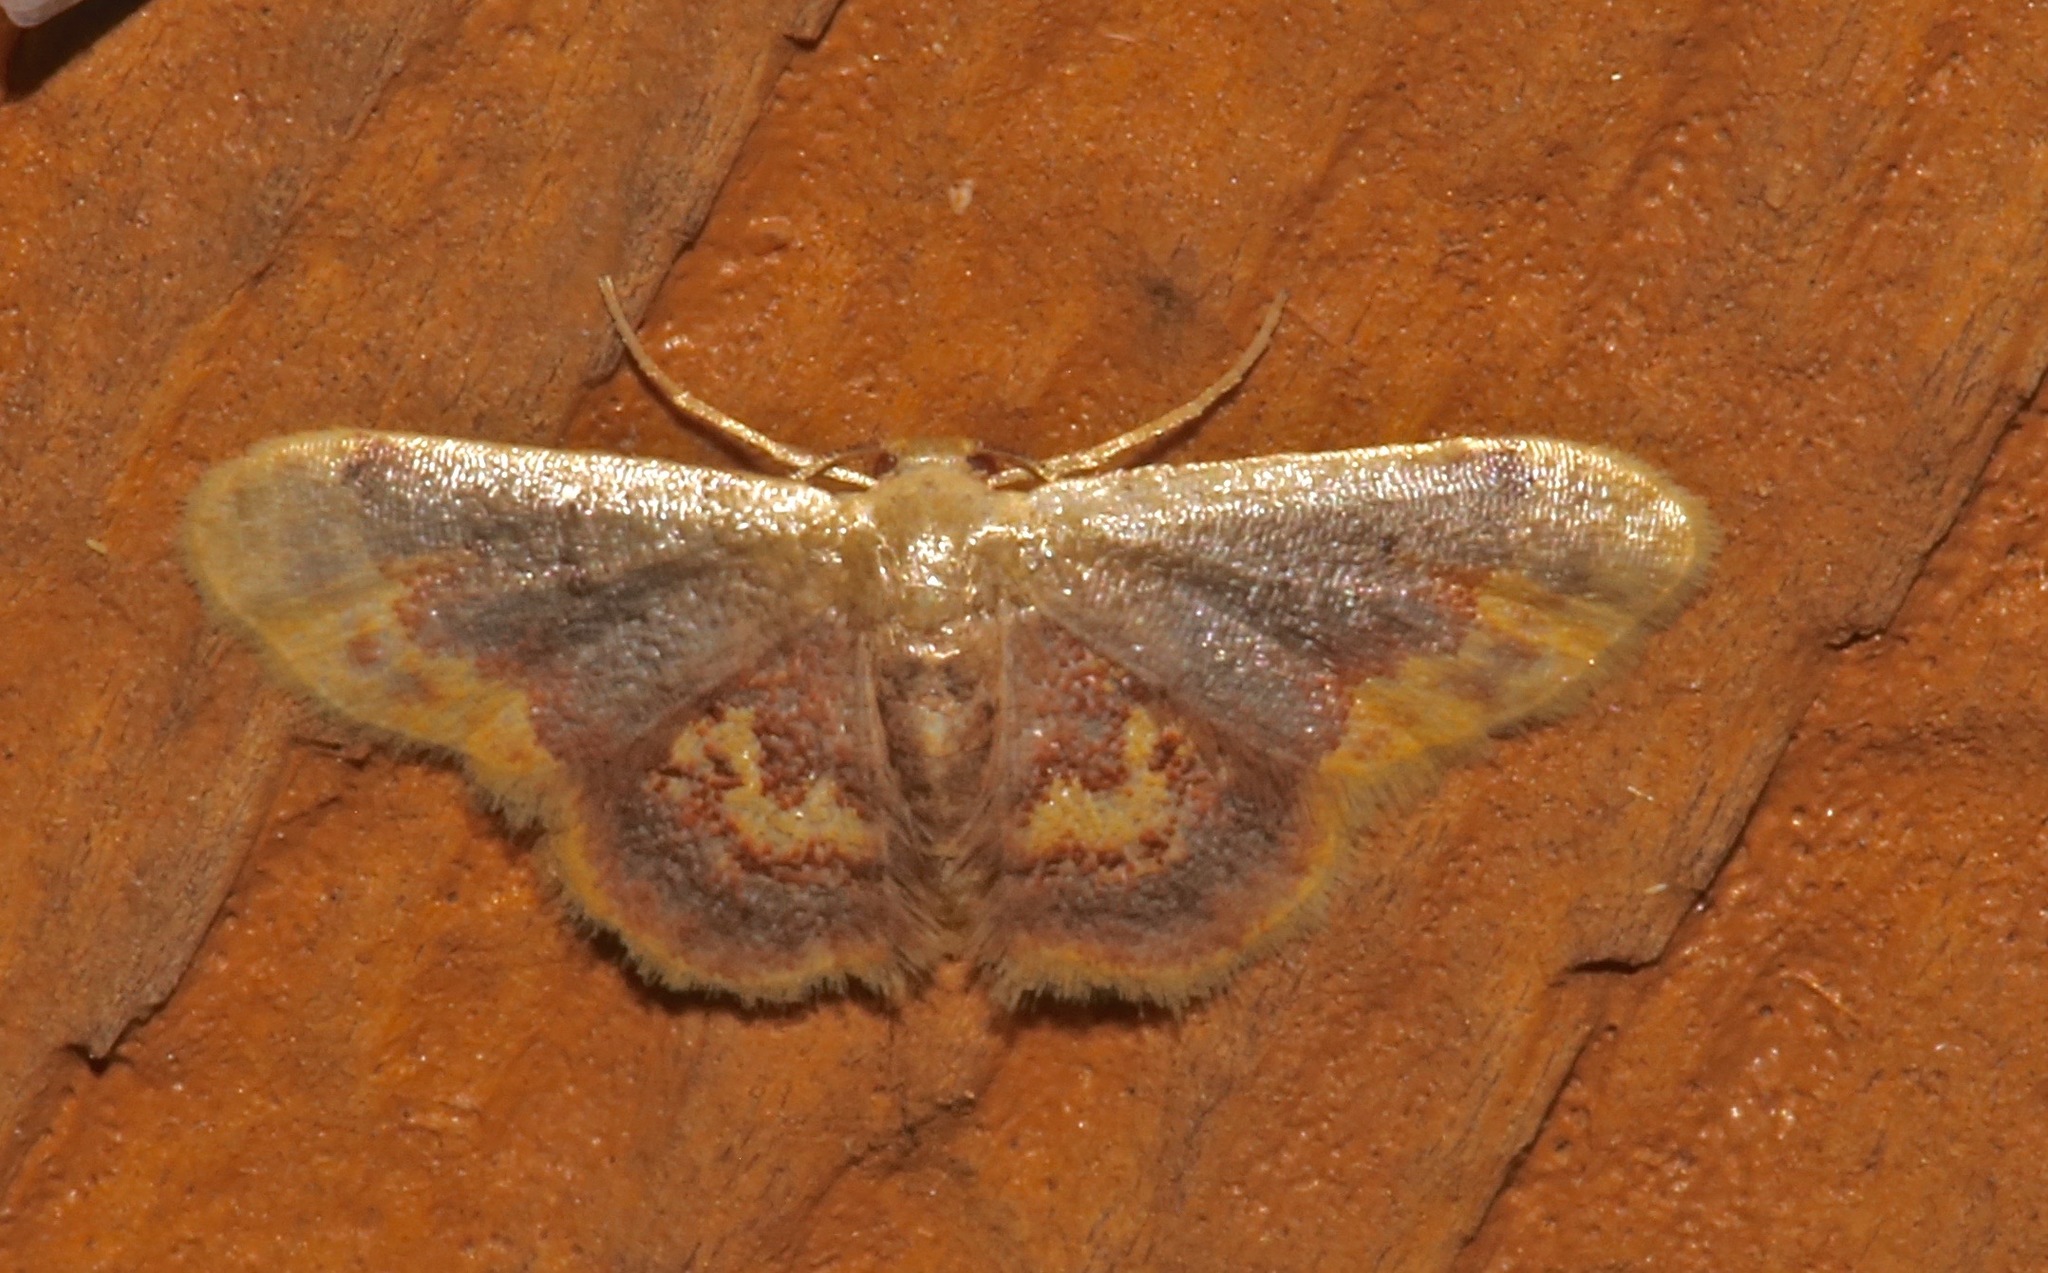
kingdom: Animalia
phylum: Arthropoda
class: Insecta
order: Lepidoptera
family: Geometridae
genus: Idaea
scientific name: Idaea scintillularia
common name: Diminutive wave
